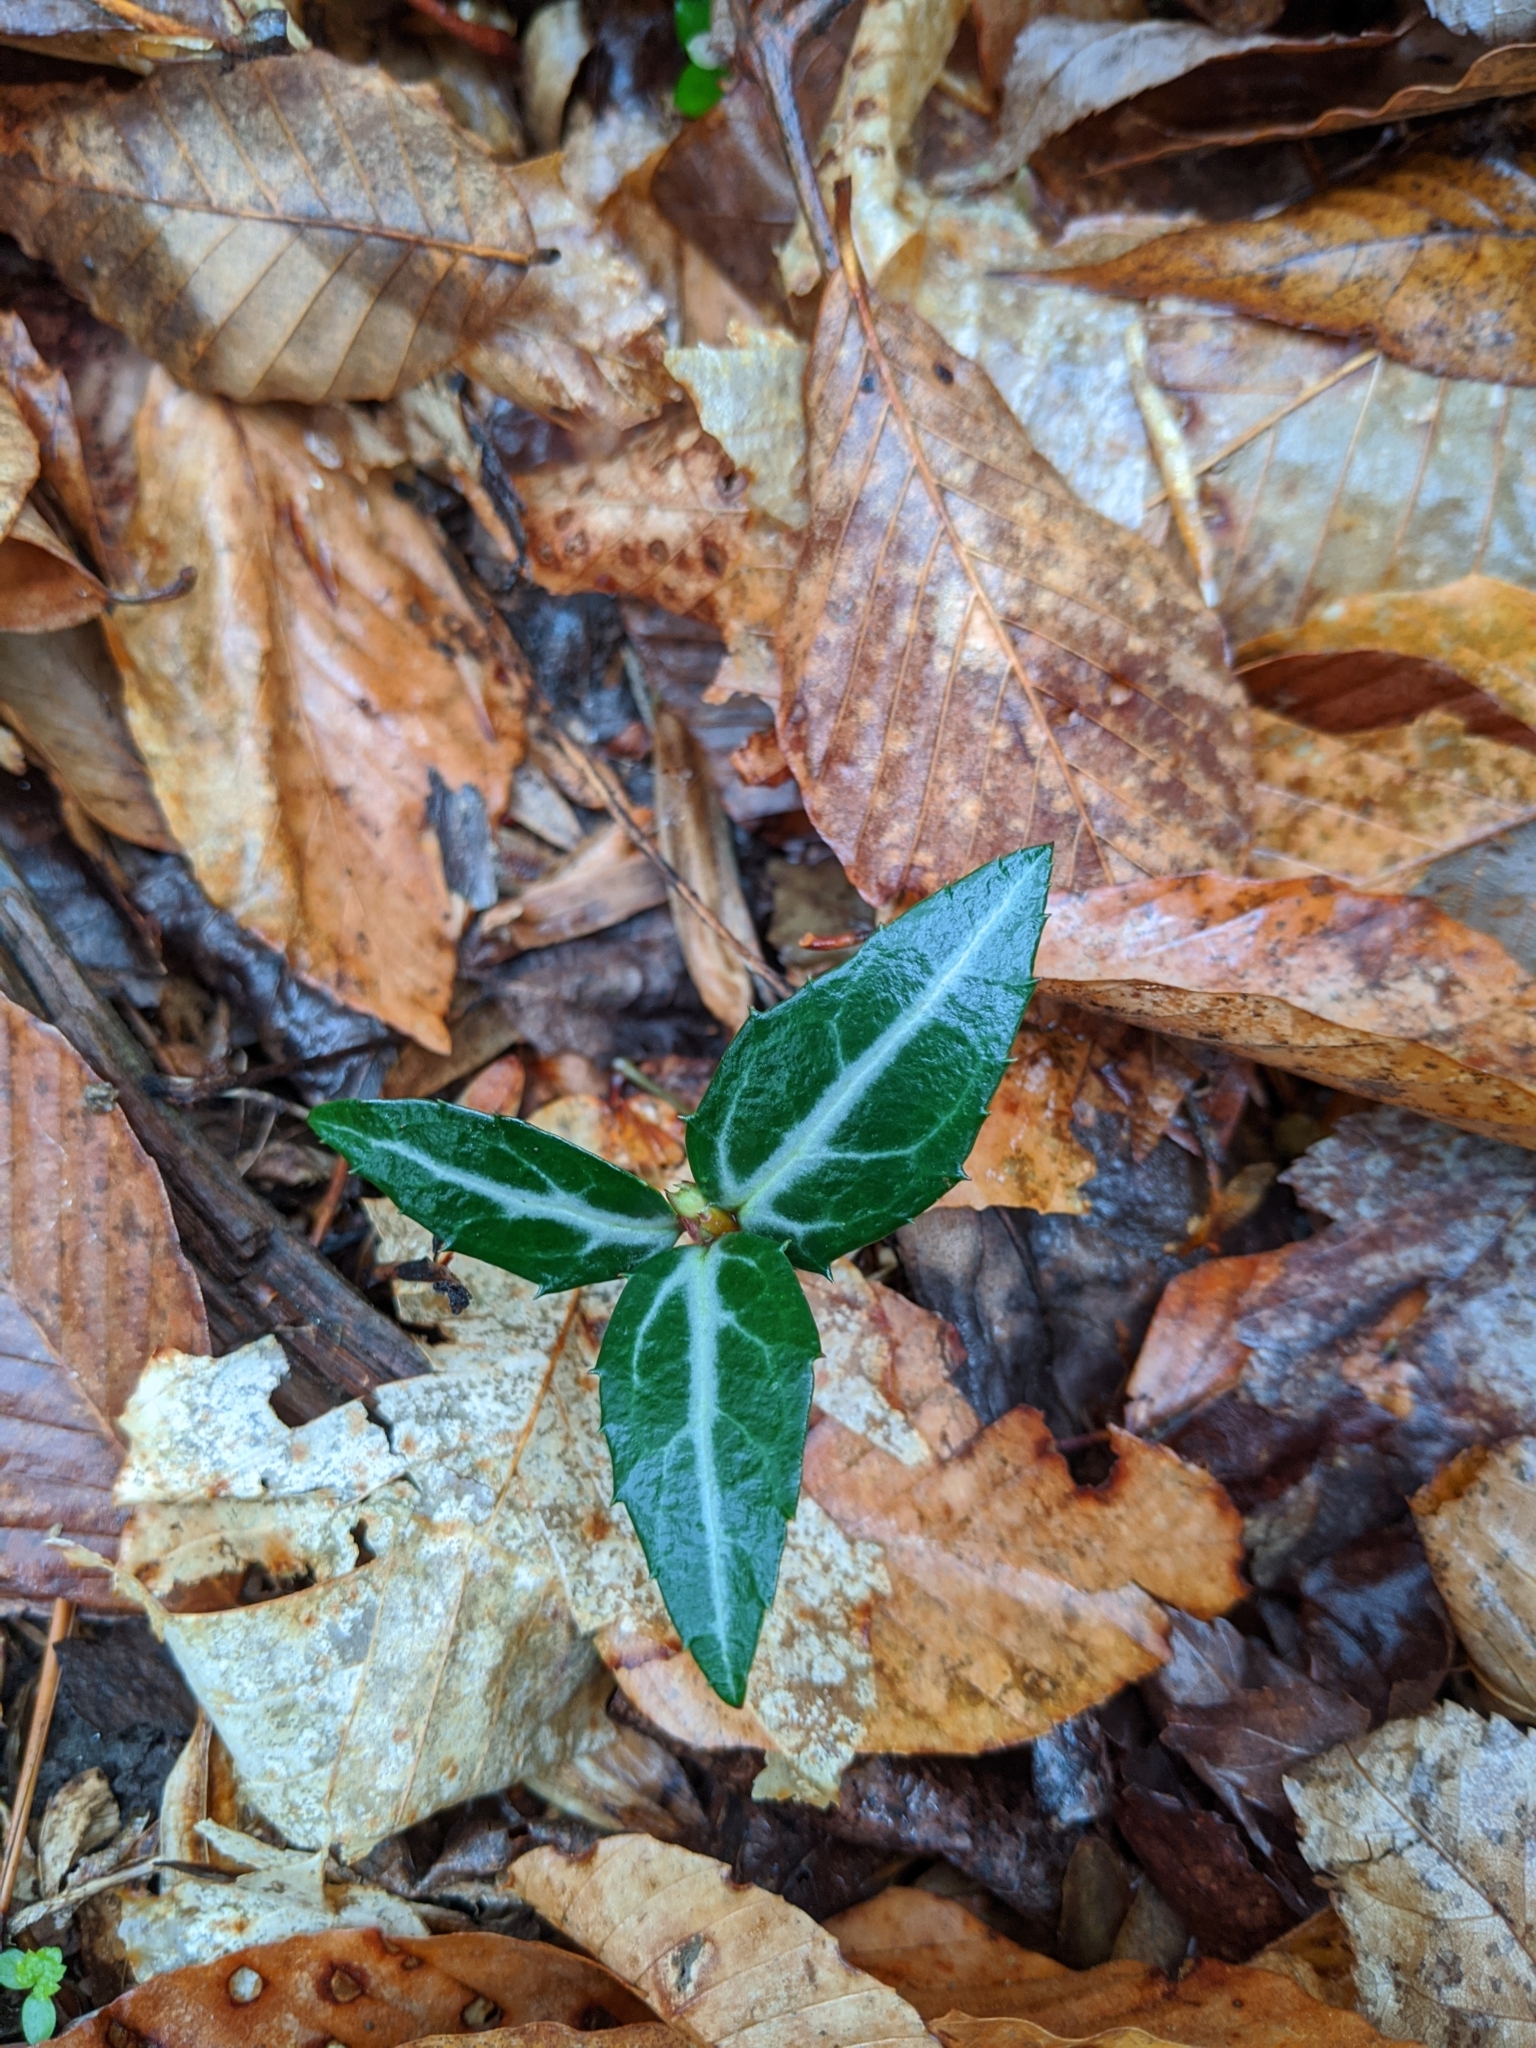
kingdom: Plantae
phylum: Tracheophyta
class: Magnoliopsida
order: Ericales
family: Ericaceae
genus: Chimaphila
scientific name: Chimaphila maculata
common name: Spotted pipsissewa
